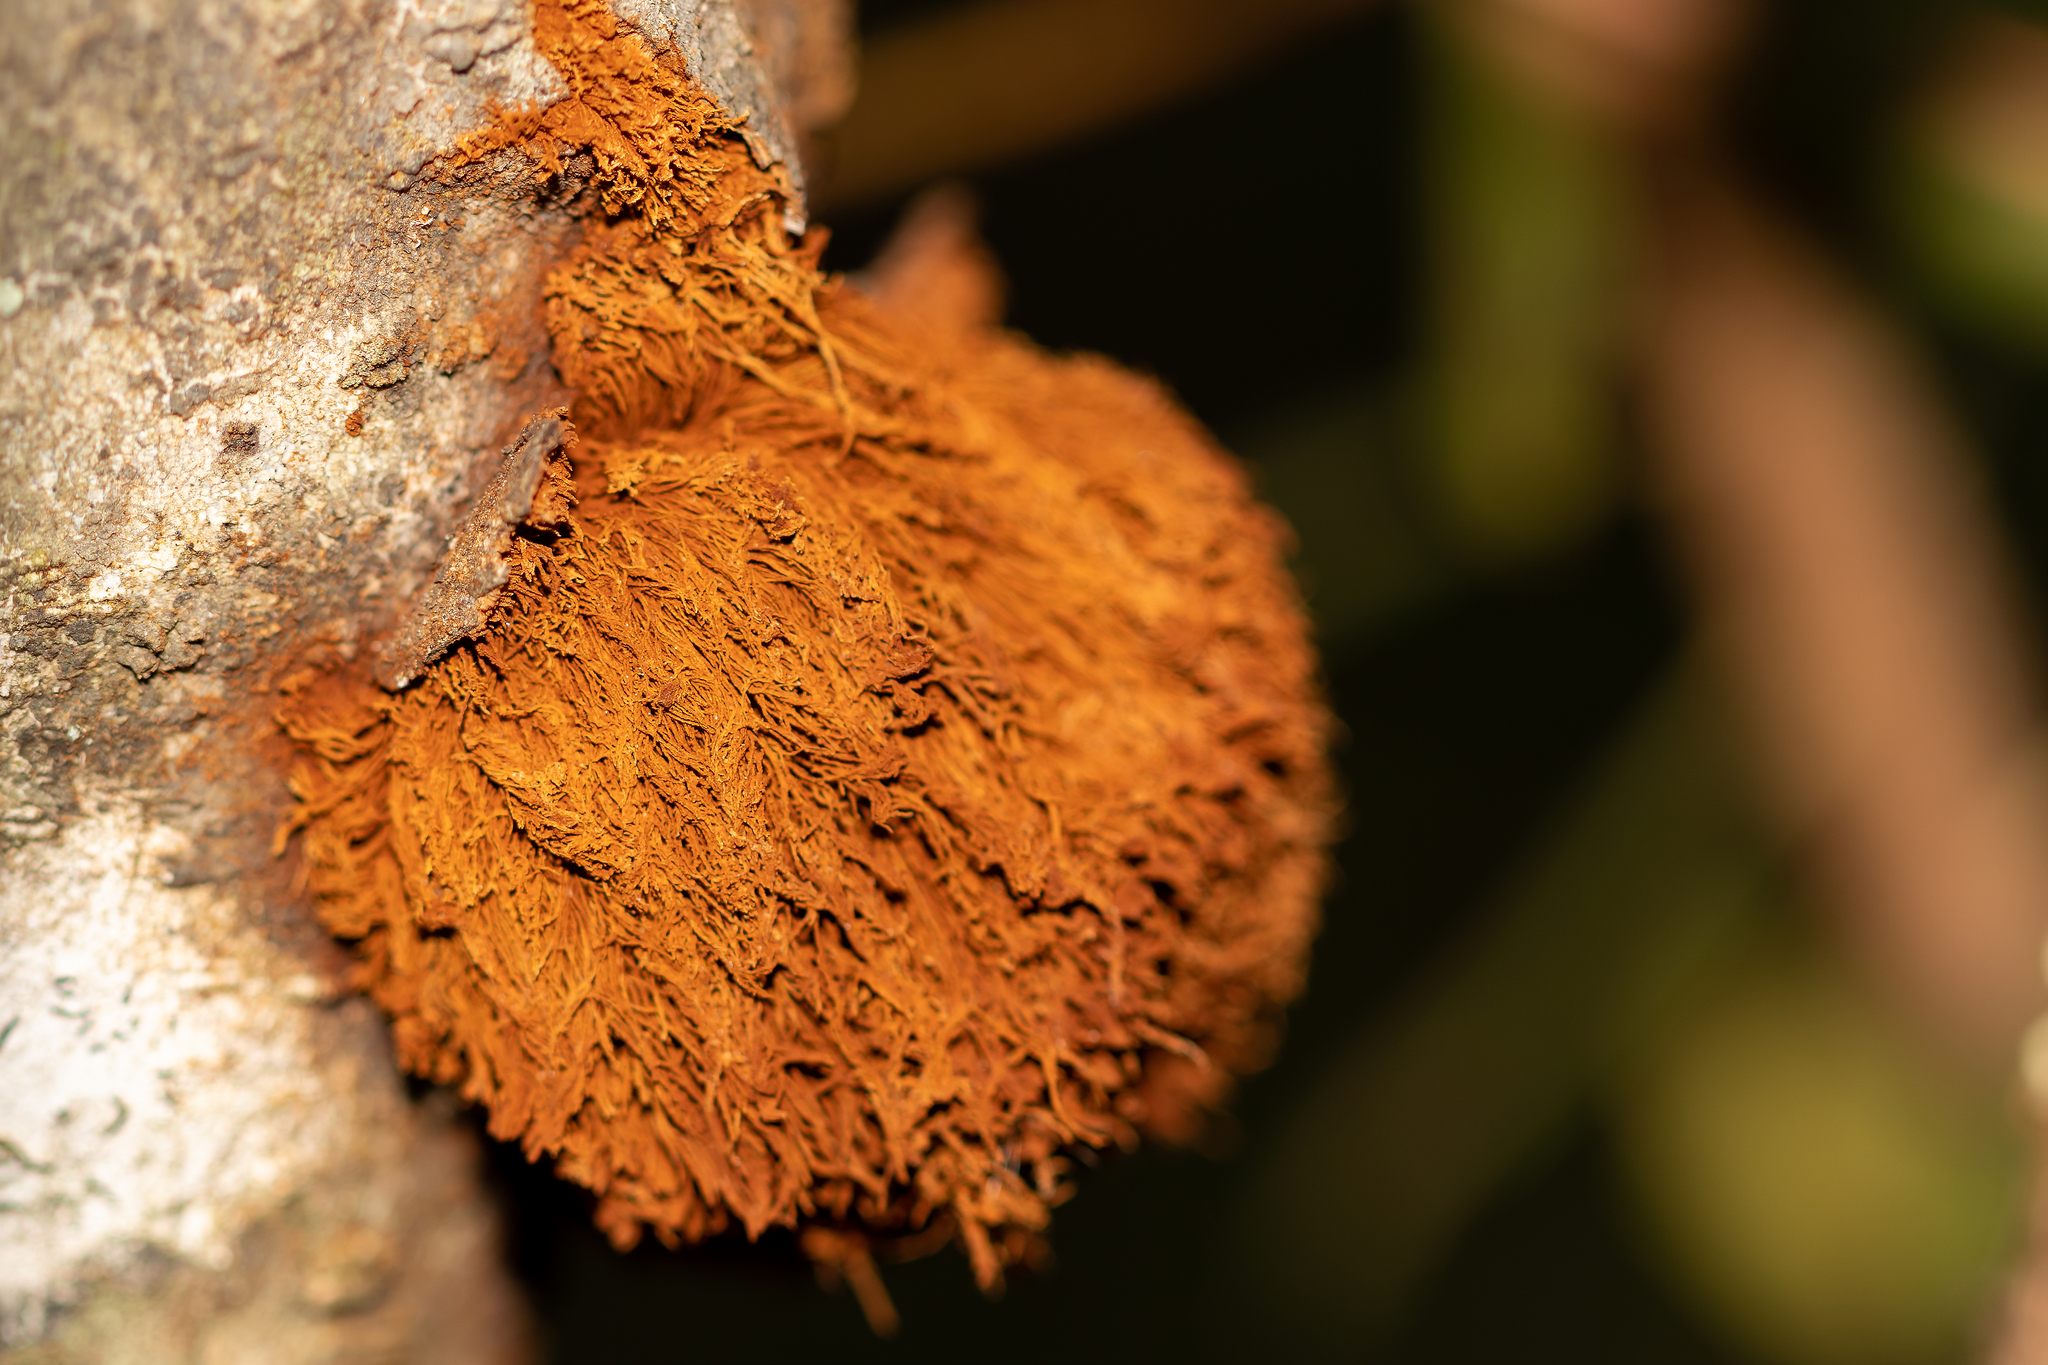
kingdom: Fungi
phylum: Basidiomycota
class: Agaricomycetes
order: Hymenochaetales
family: Hymenochaetaceae
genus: Inonotus
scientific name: Inonotus rickii
